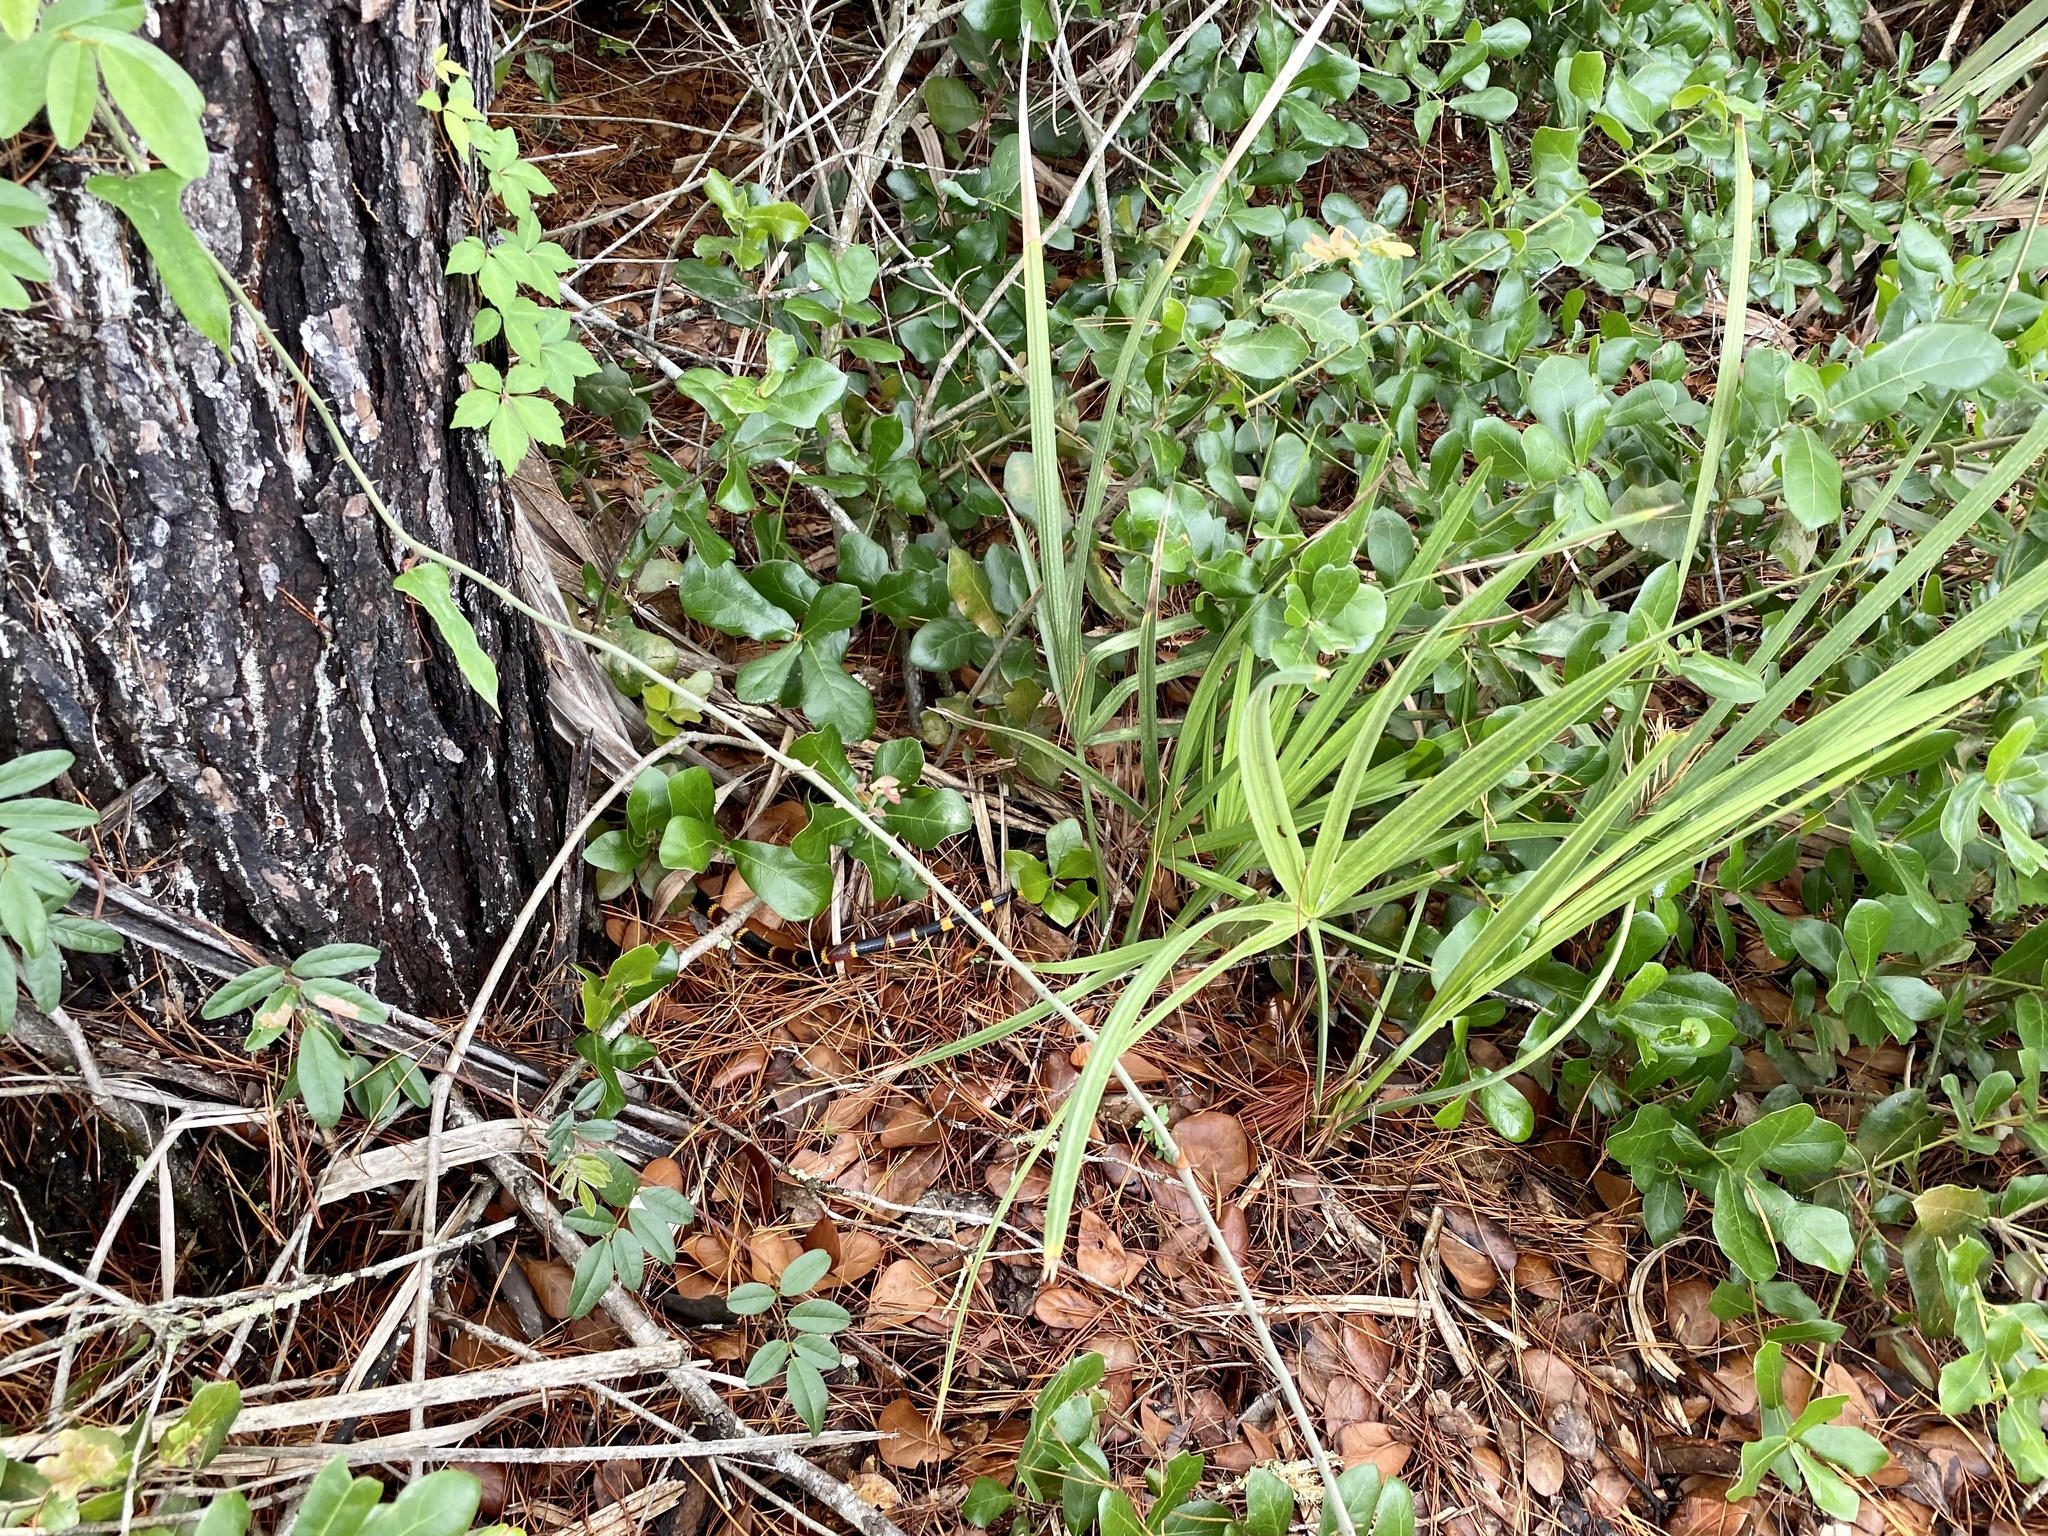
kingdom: Animalia
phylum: Chordata
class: Squamata
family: Elapidae
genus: Micrurus
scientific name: Micrurus fulvius
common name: Eastern coral snake
